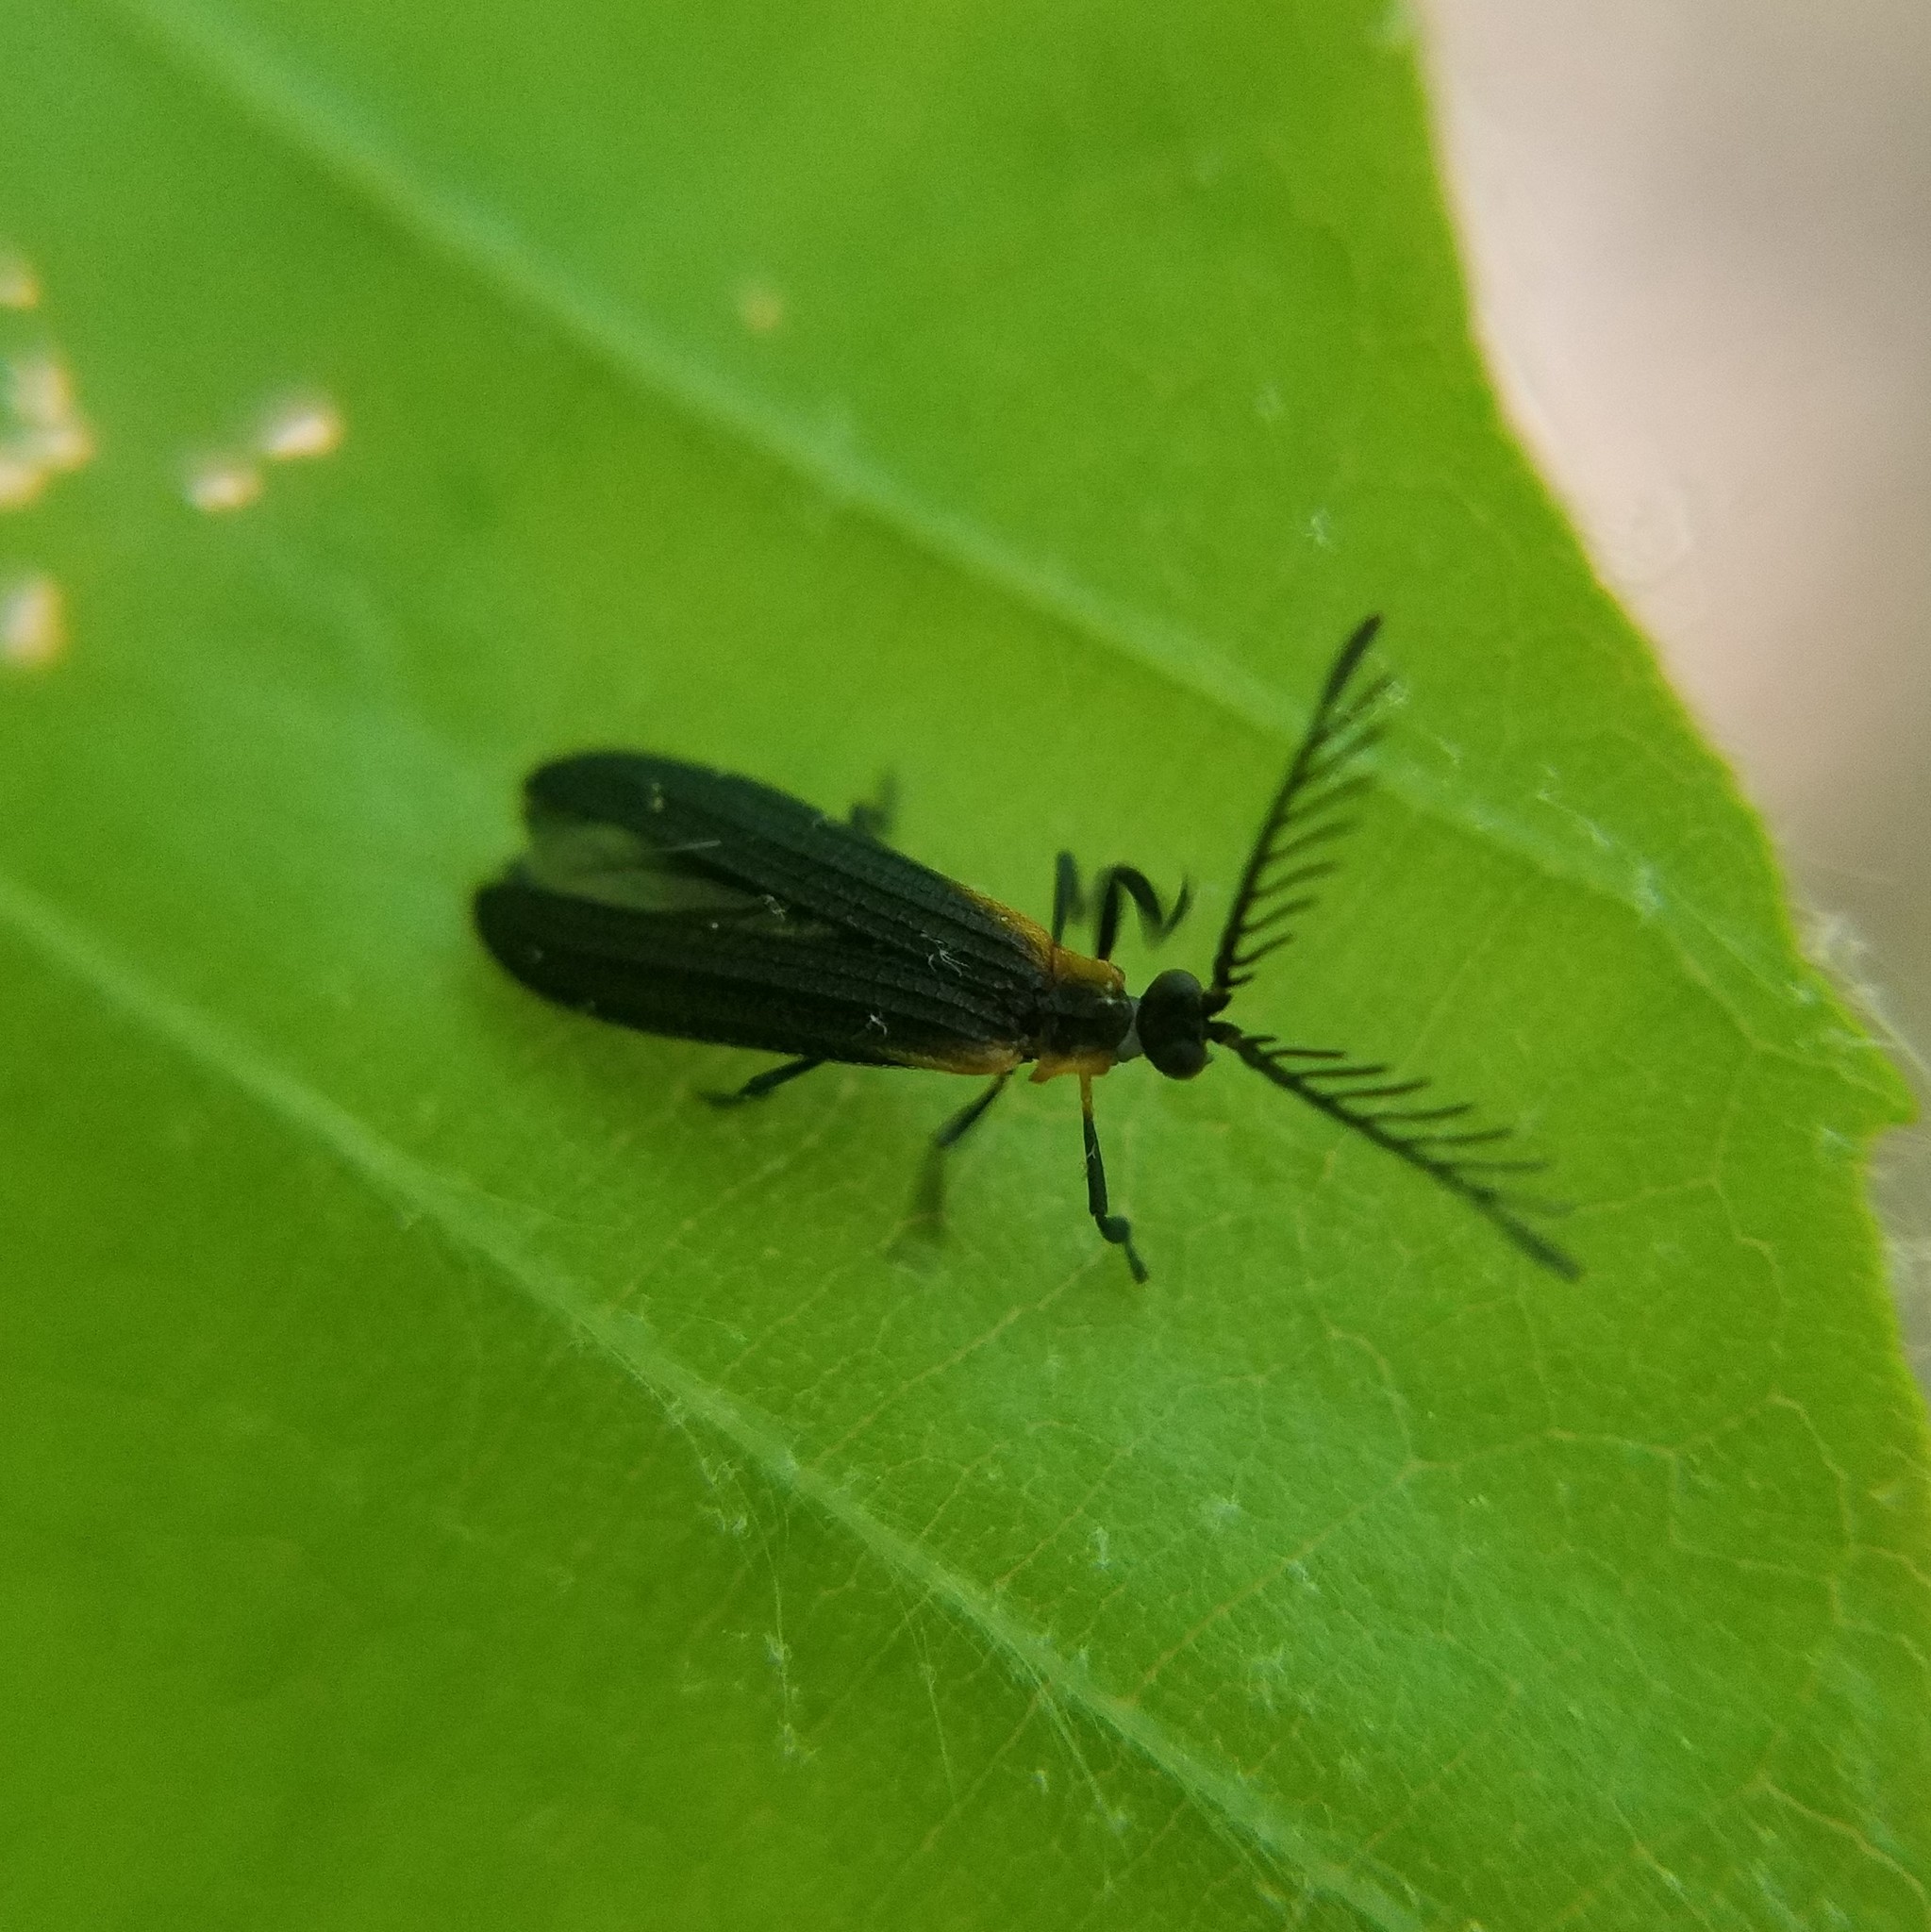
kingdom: Animalia
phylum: Arthropoda
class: Insecta
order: Coleoptera
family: Lycidae
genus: Leptoceletes
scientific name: Leptoceletes basalis
